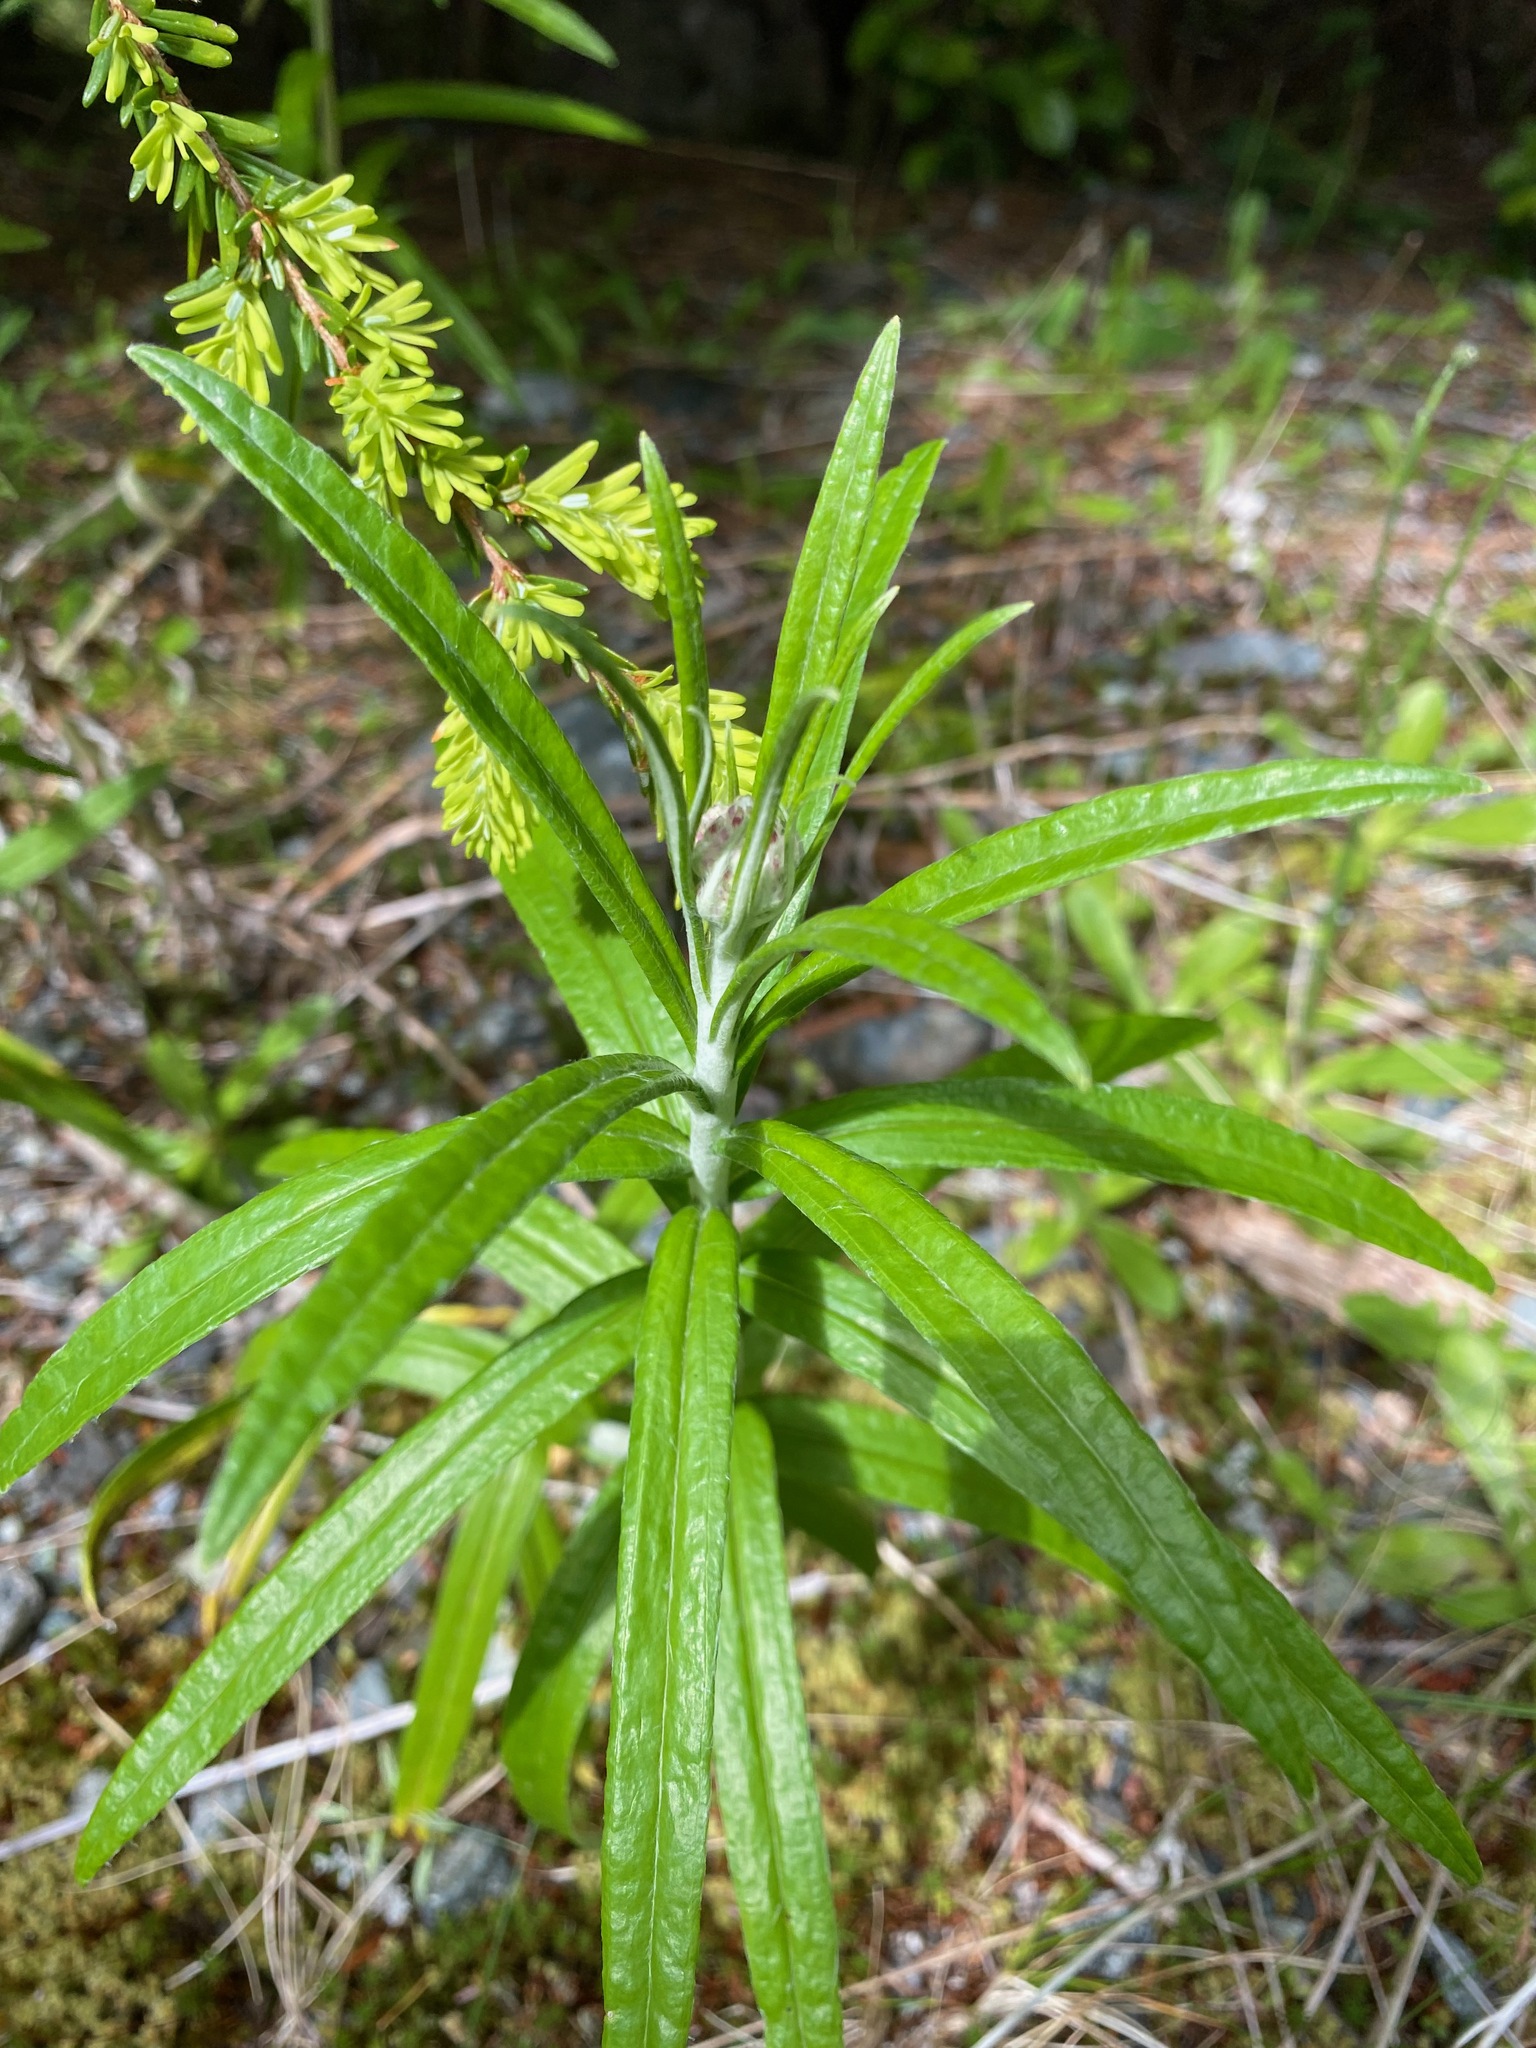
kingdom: Plantae
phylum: Tracheophyta
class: Magnoliopsida
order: Asterales
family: Asteraceae
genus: Anaphalis
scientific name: Anaphalis margaritacea
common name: Pearly everlasting
